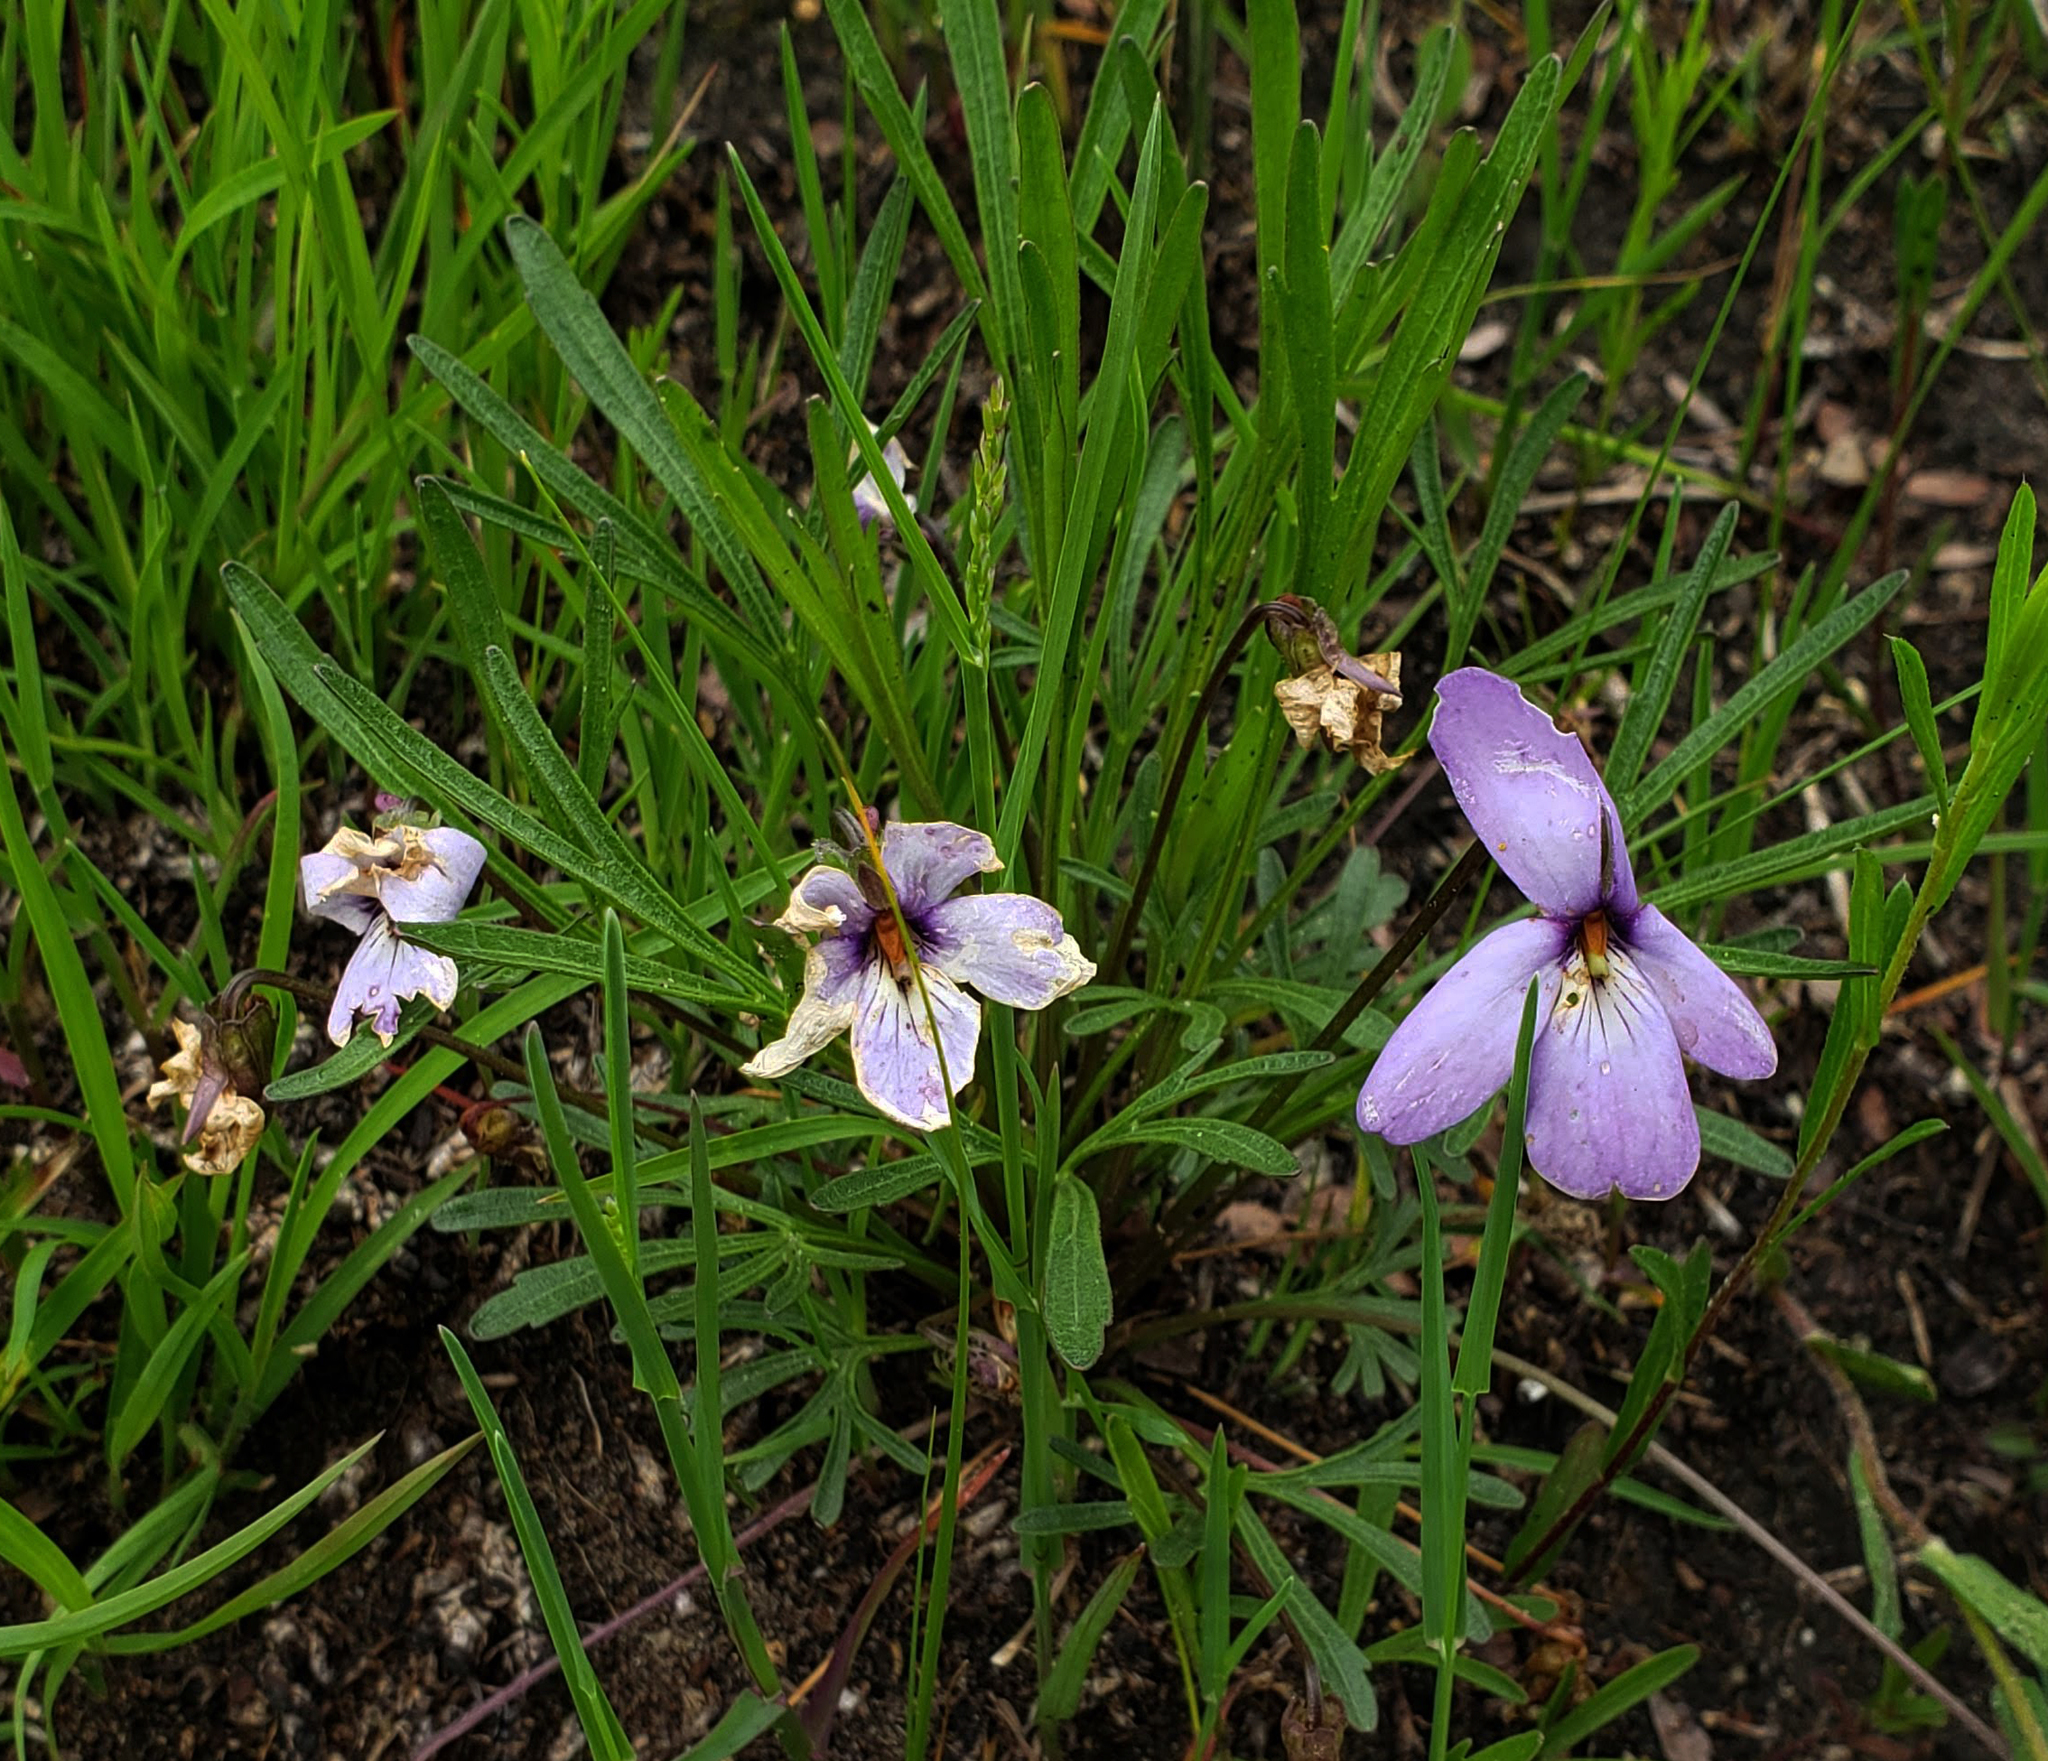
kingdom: Plantae
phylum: Tracheophyta
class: Magnoliopsida
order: Malpighiales
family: Violaceae
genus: Viola
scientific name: Viola pedata
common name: Pansy violet
